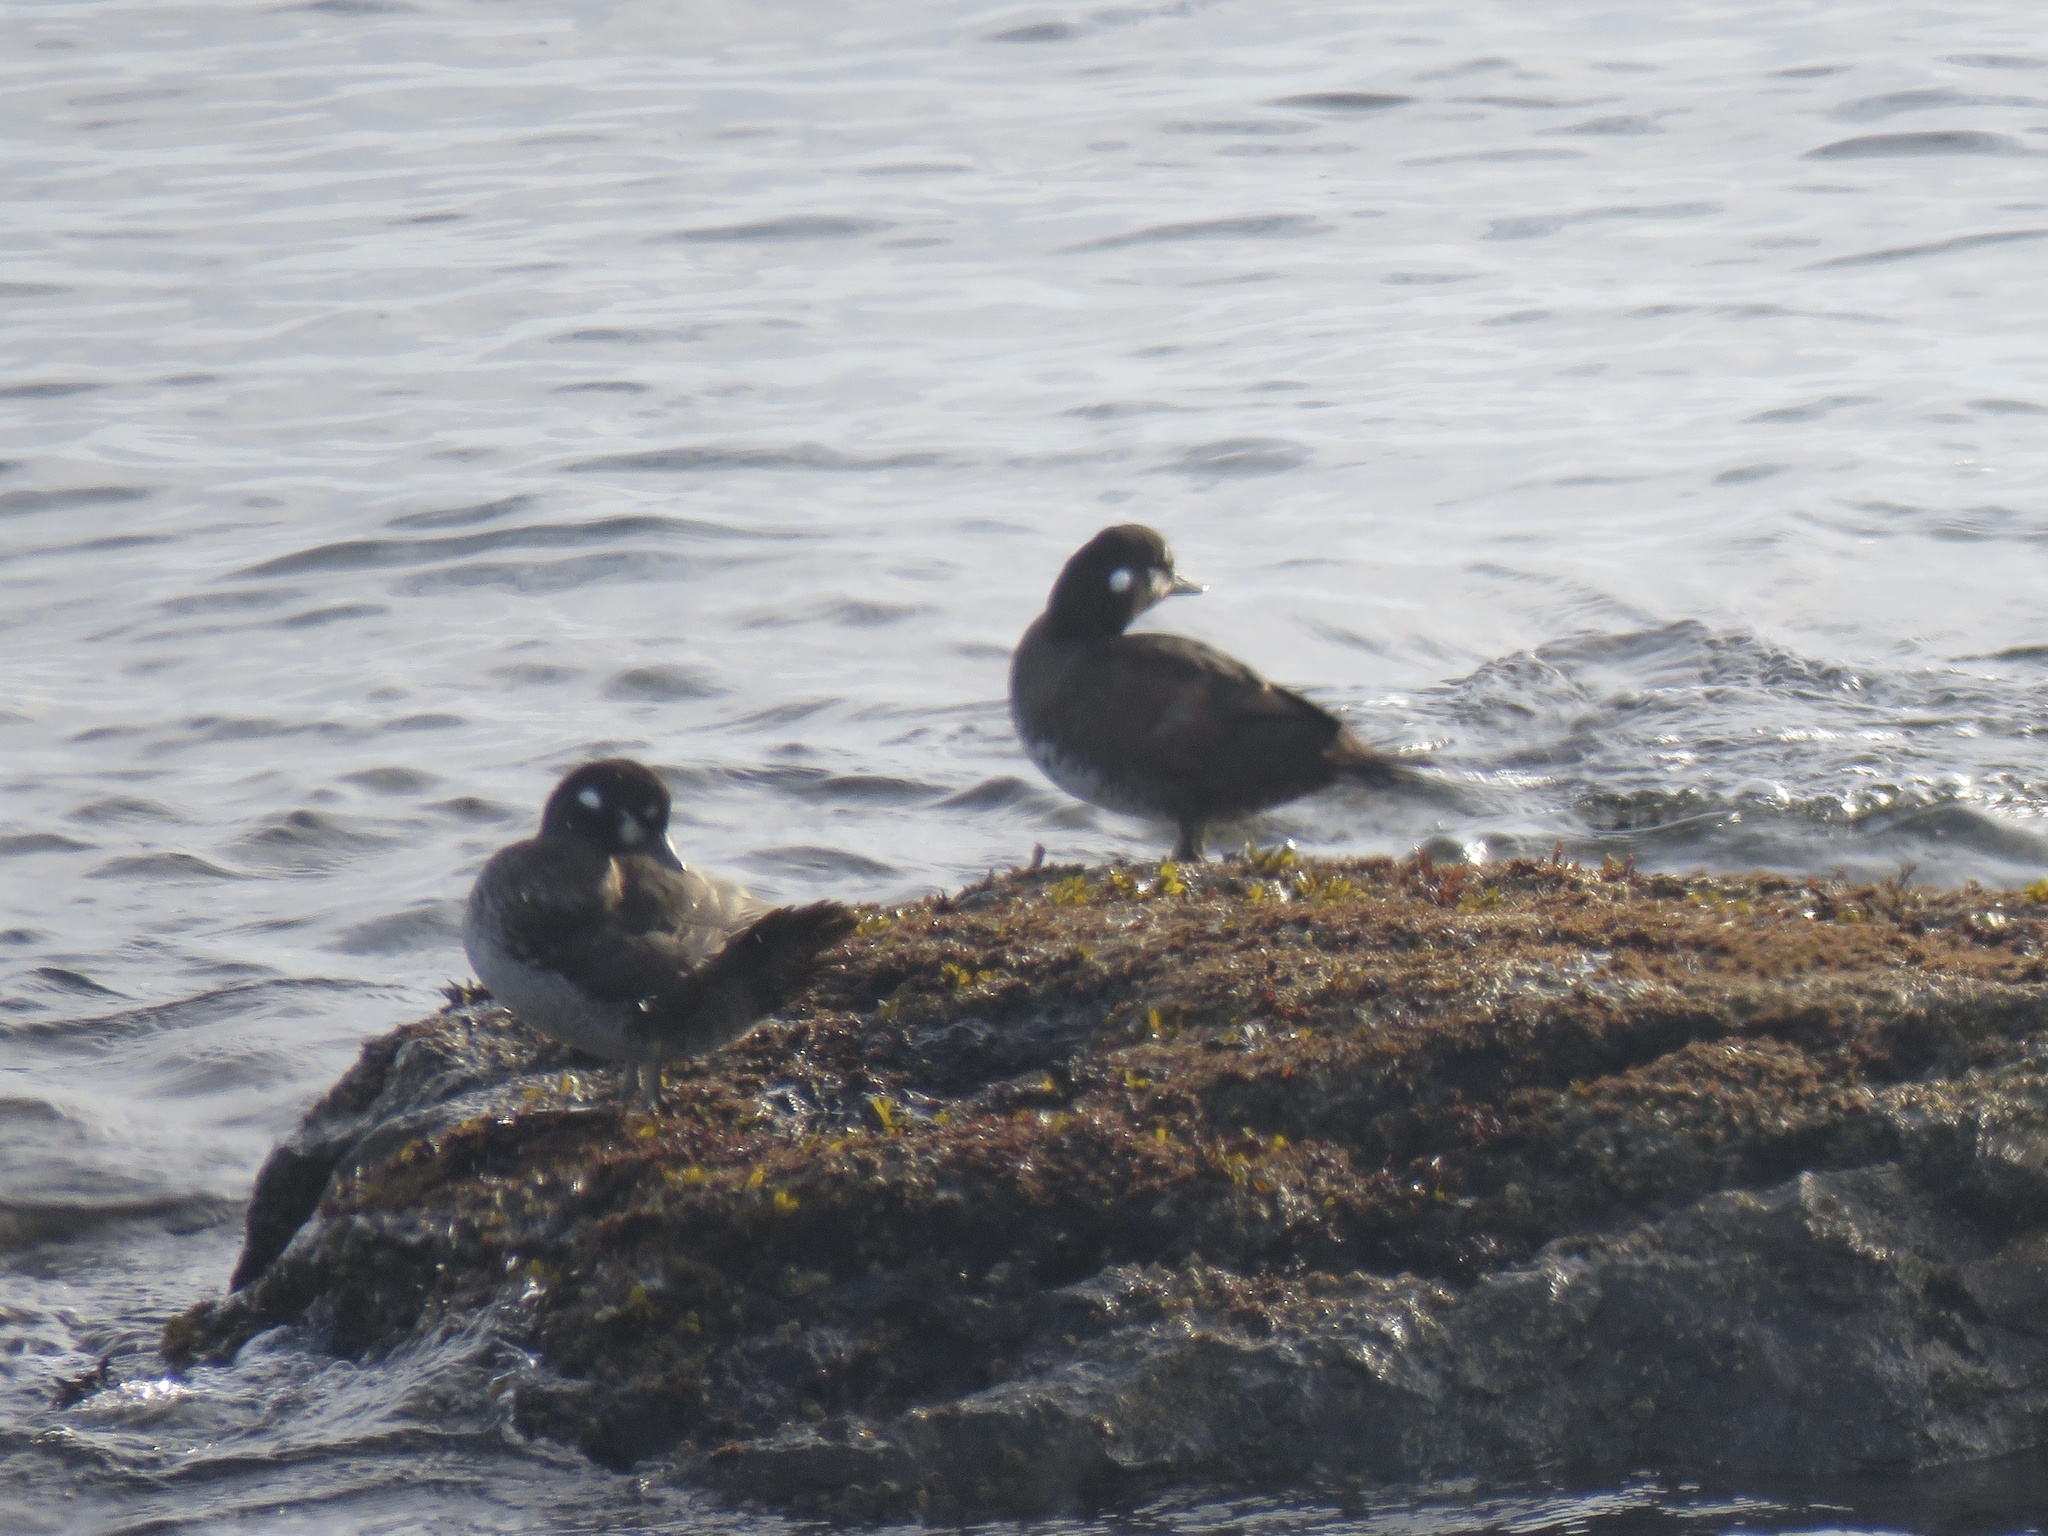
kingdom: Animalia
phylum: Chordata
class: Aves
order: Anseriformes
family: Anatidae
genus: Histrionicus
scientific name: Histrionicus histrionicus
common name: Harlequin duck
